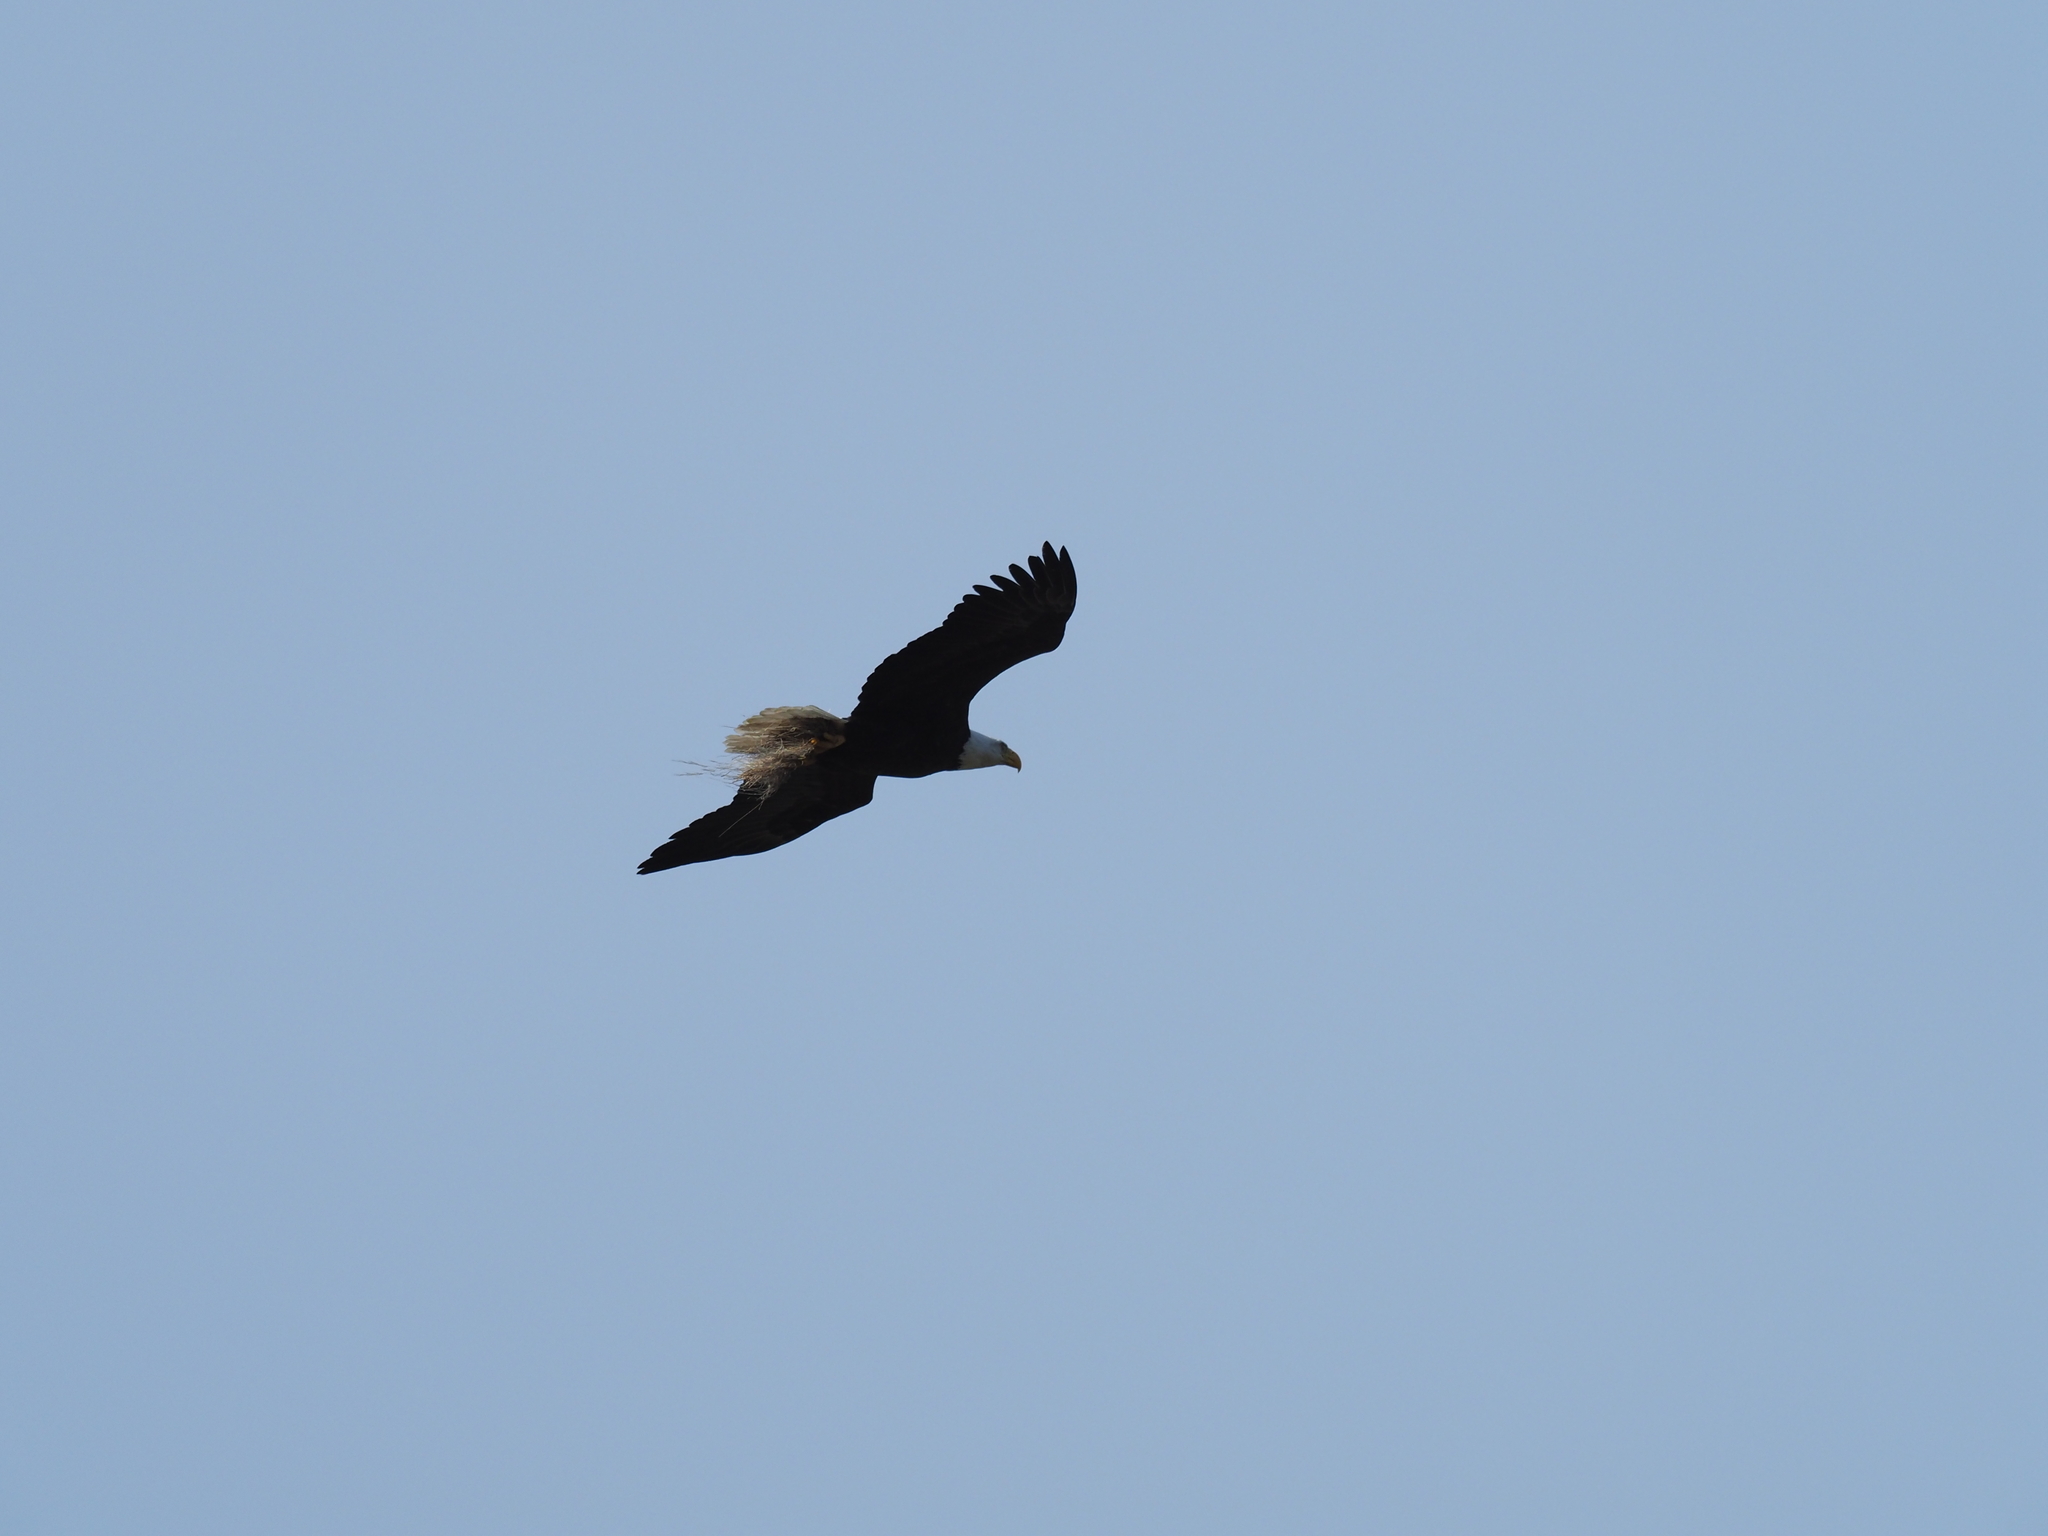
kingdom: Animalia
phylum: Chordata
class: Aves
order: Accipitriformes
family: Accipitridae
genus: Haliaeetus
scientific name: Haliaeetus leucocephalus
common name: Bald eagle
